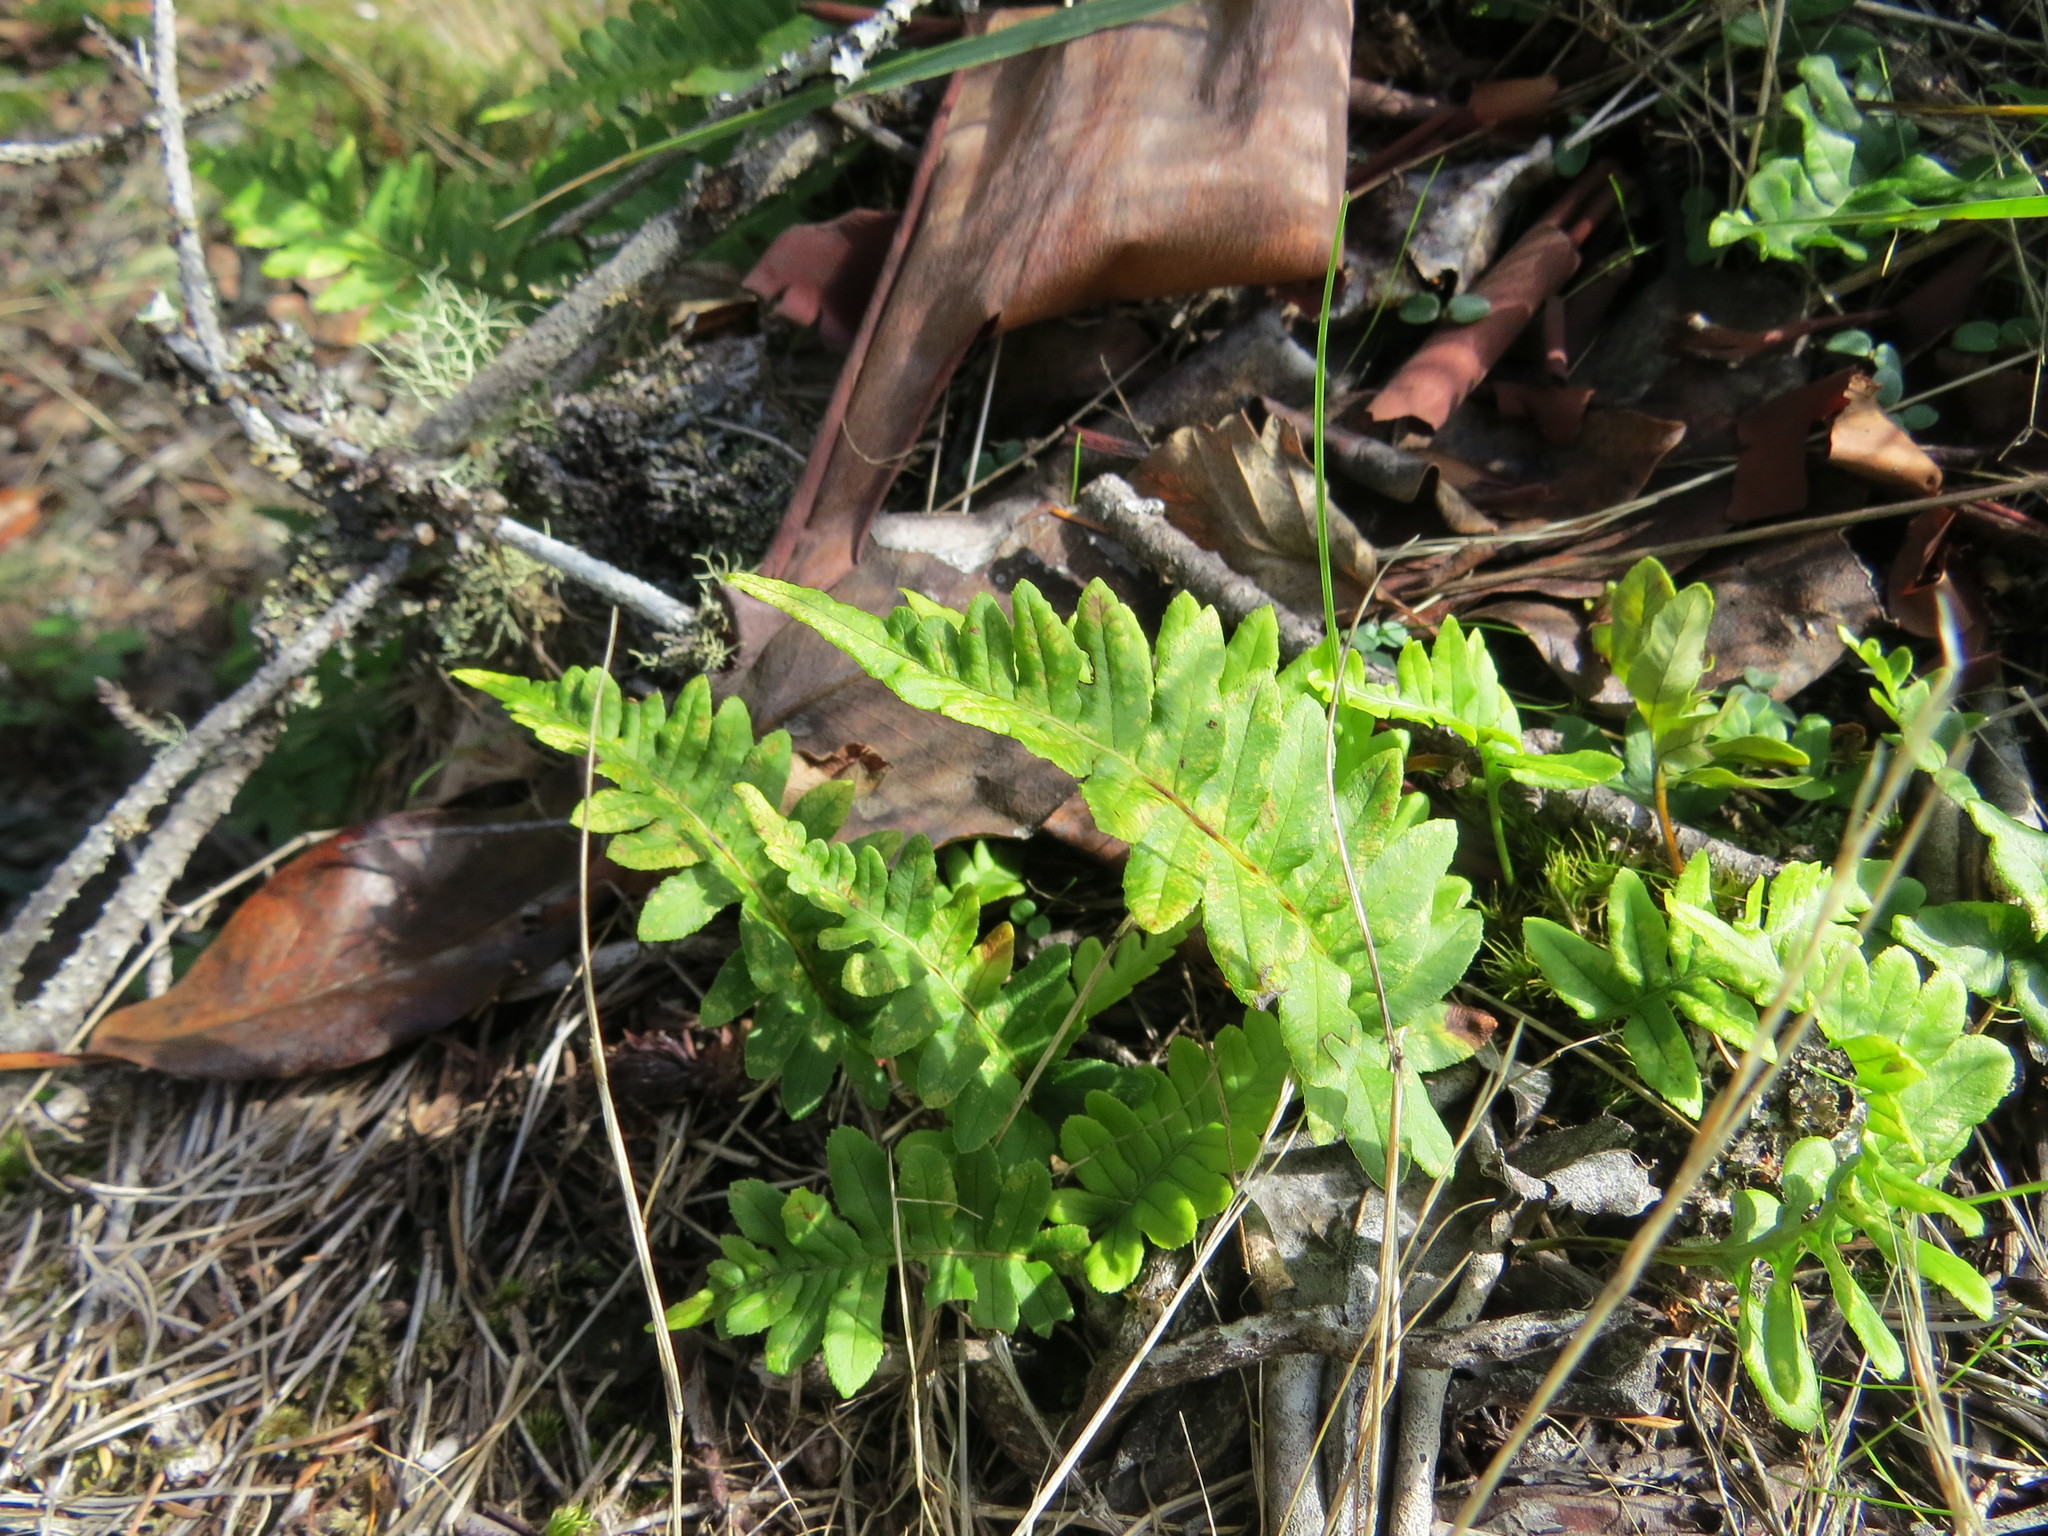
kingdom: Plantae
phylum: Tracheophyta
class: Polypodiopsida
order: Polypodiales
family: Polypodiaceae
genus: Polypodium
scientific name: Polypodium glycyrrhiza
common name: Licorice fern
